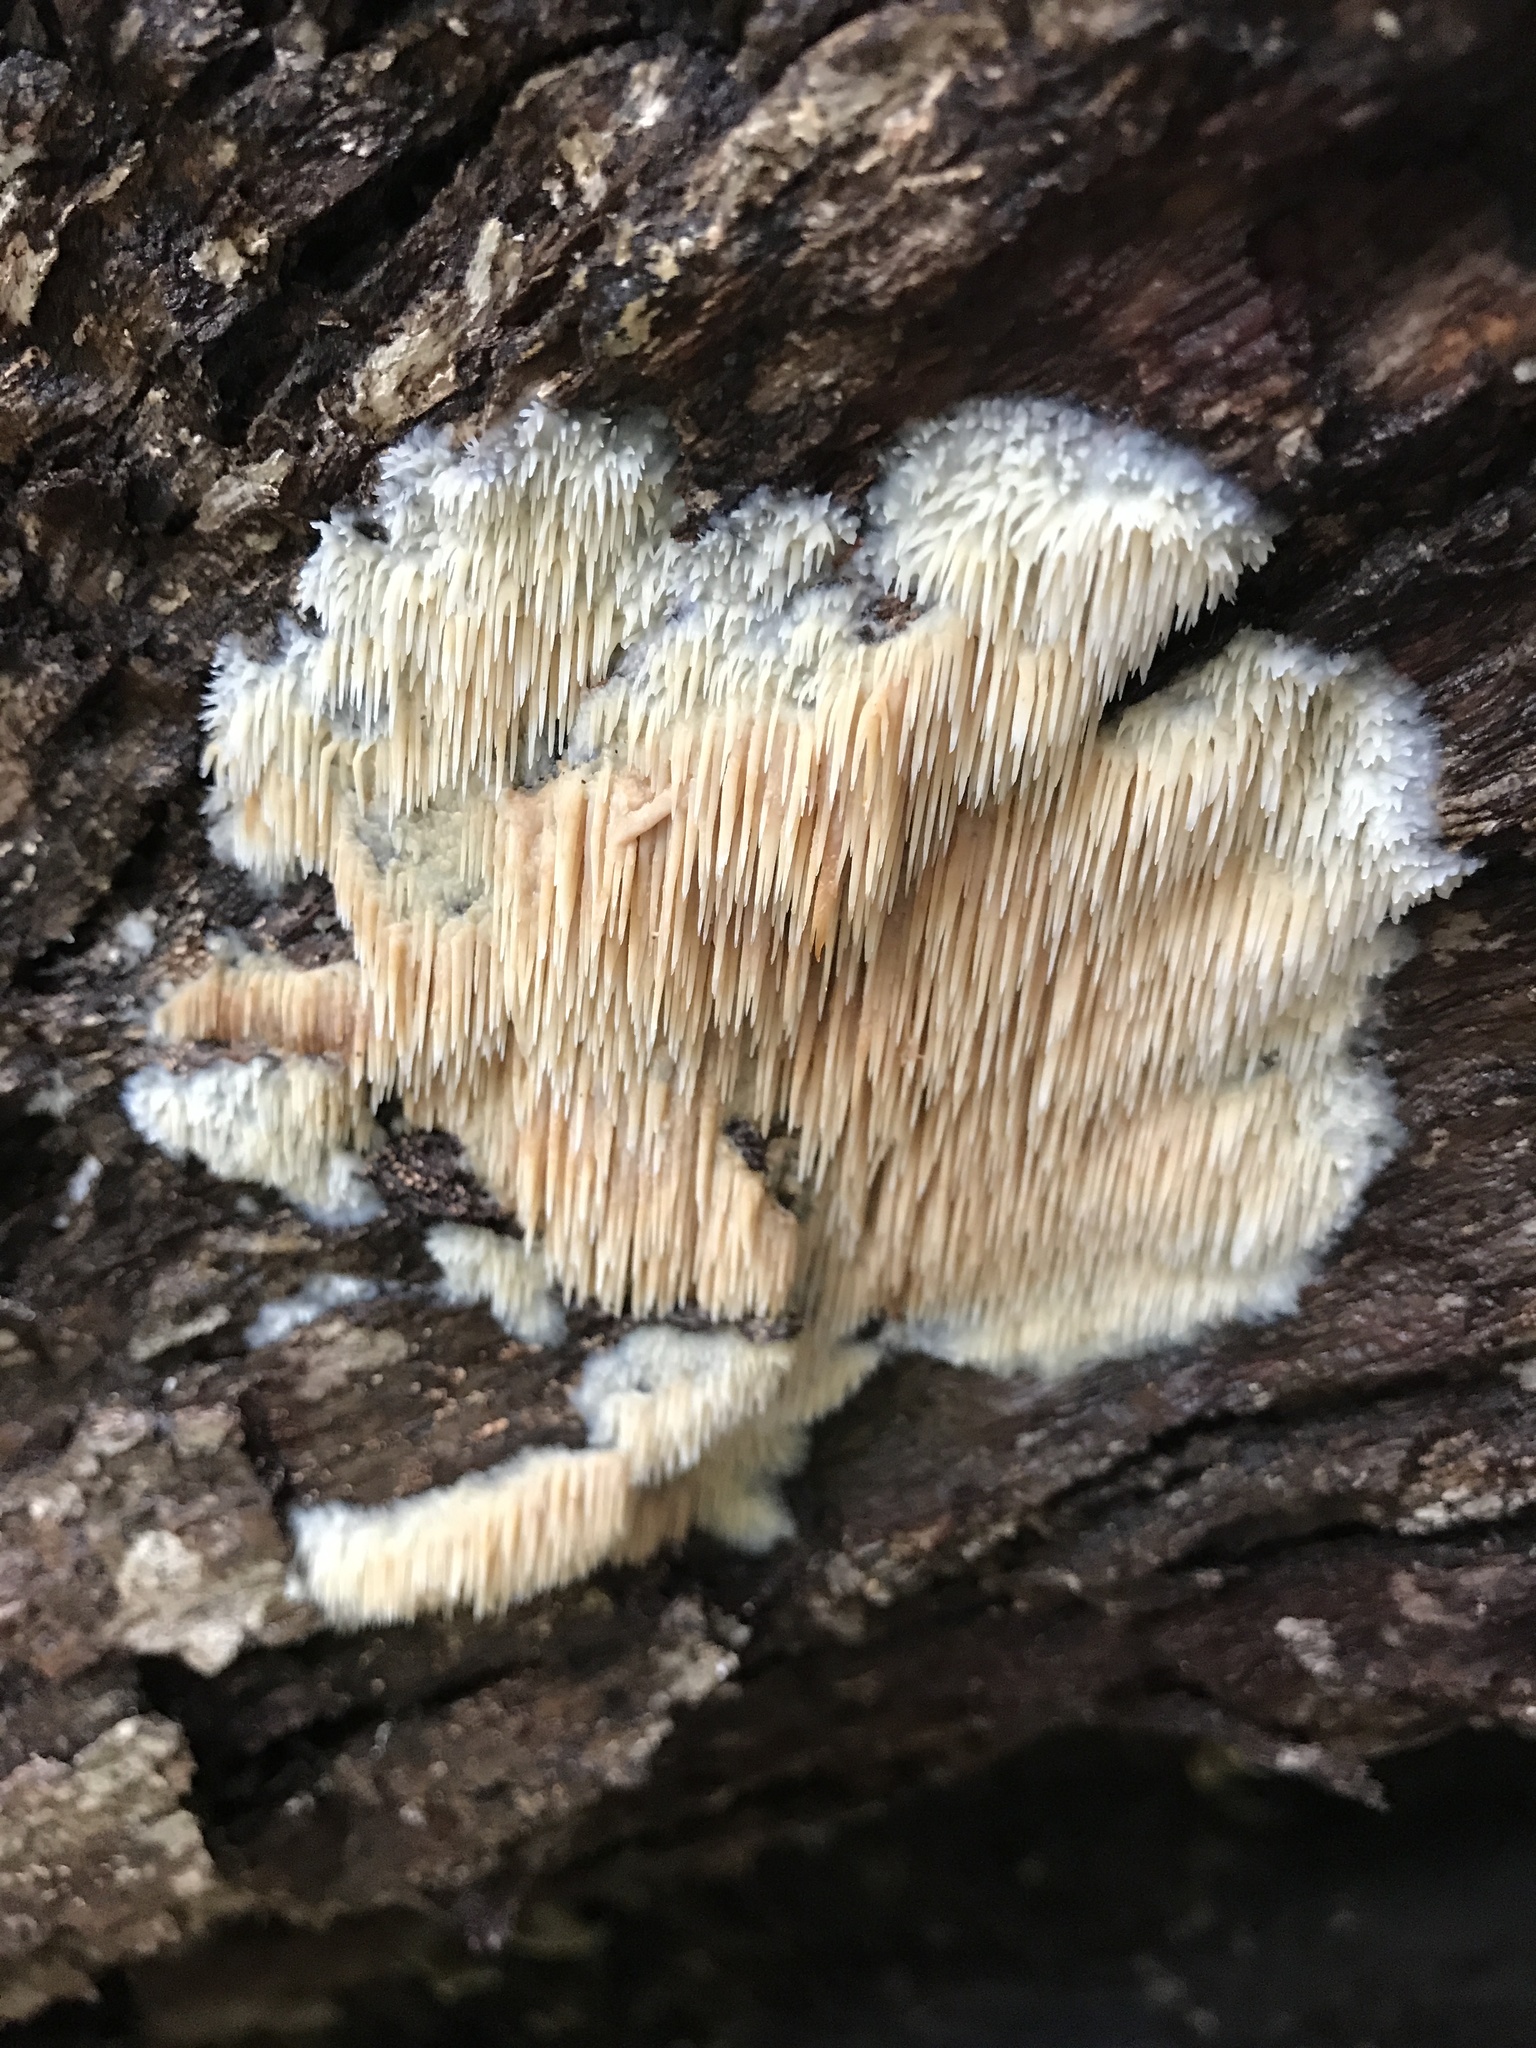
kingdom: Fungi
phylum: Basidiomycota
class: Agaricomycetes
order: Agaricales
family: Radulomycetaceae
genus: Radulomyces
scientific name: Radulomyces copelandii
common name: Asian beauty
